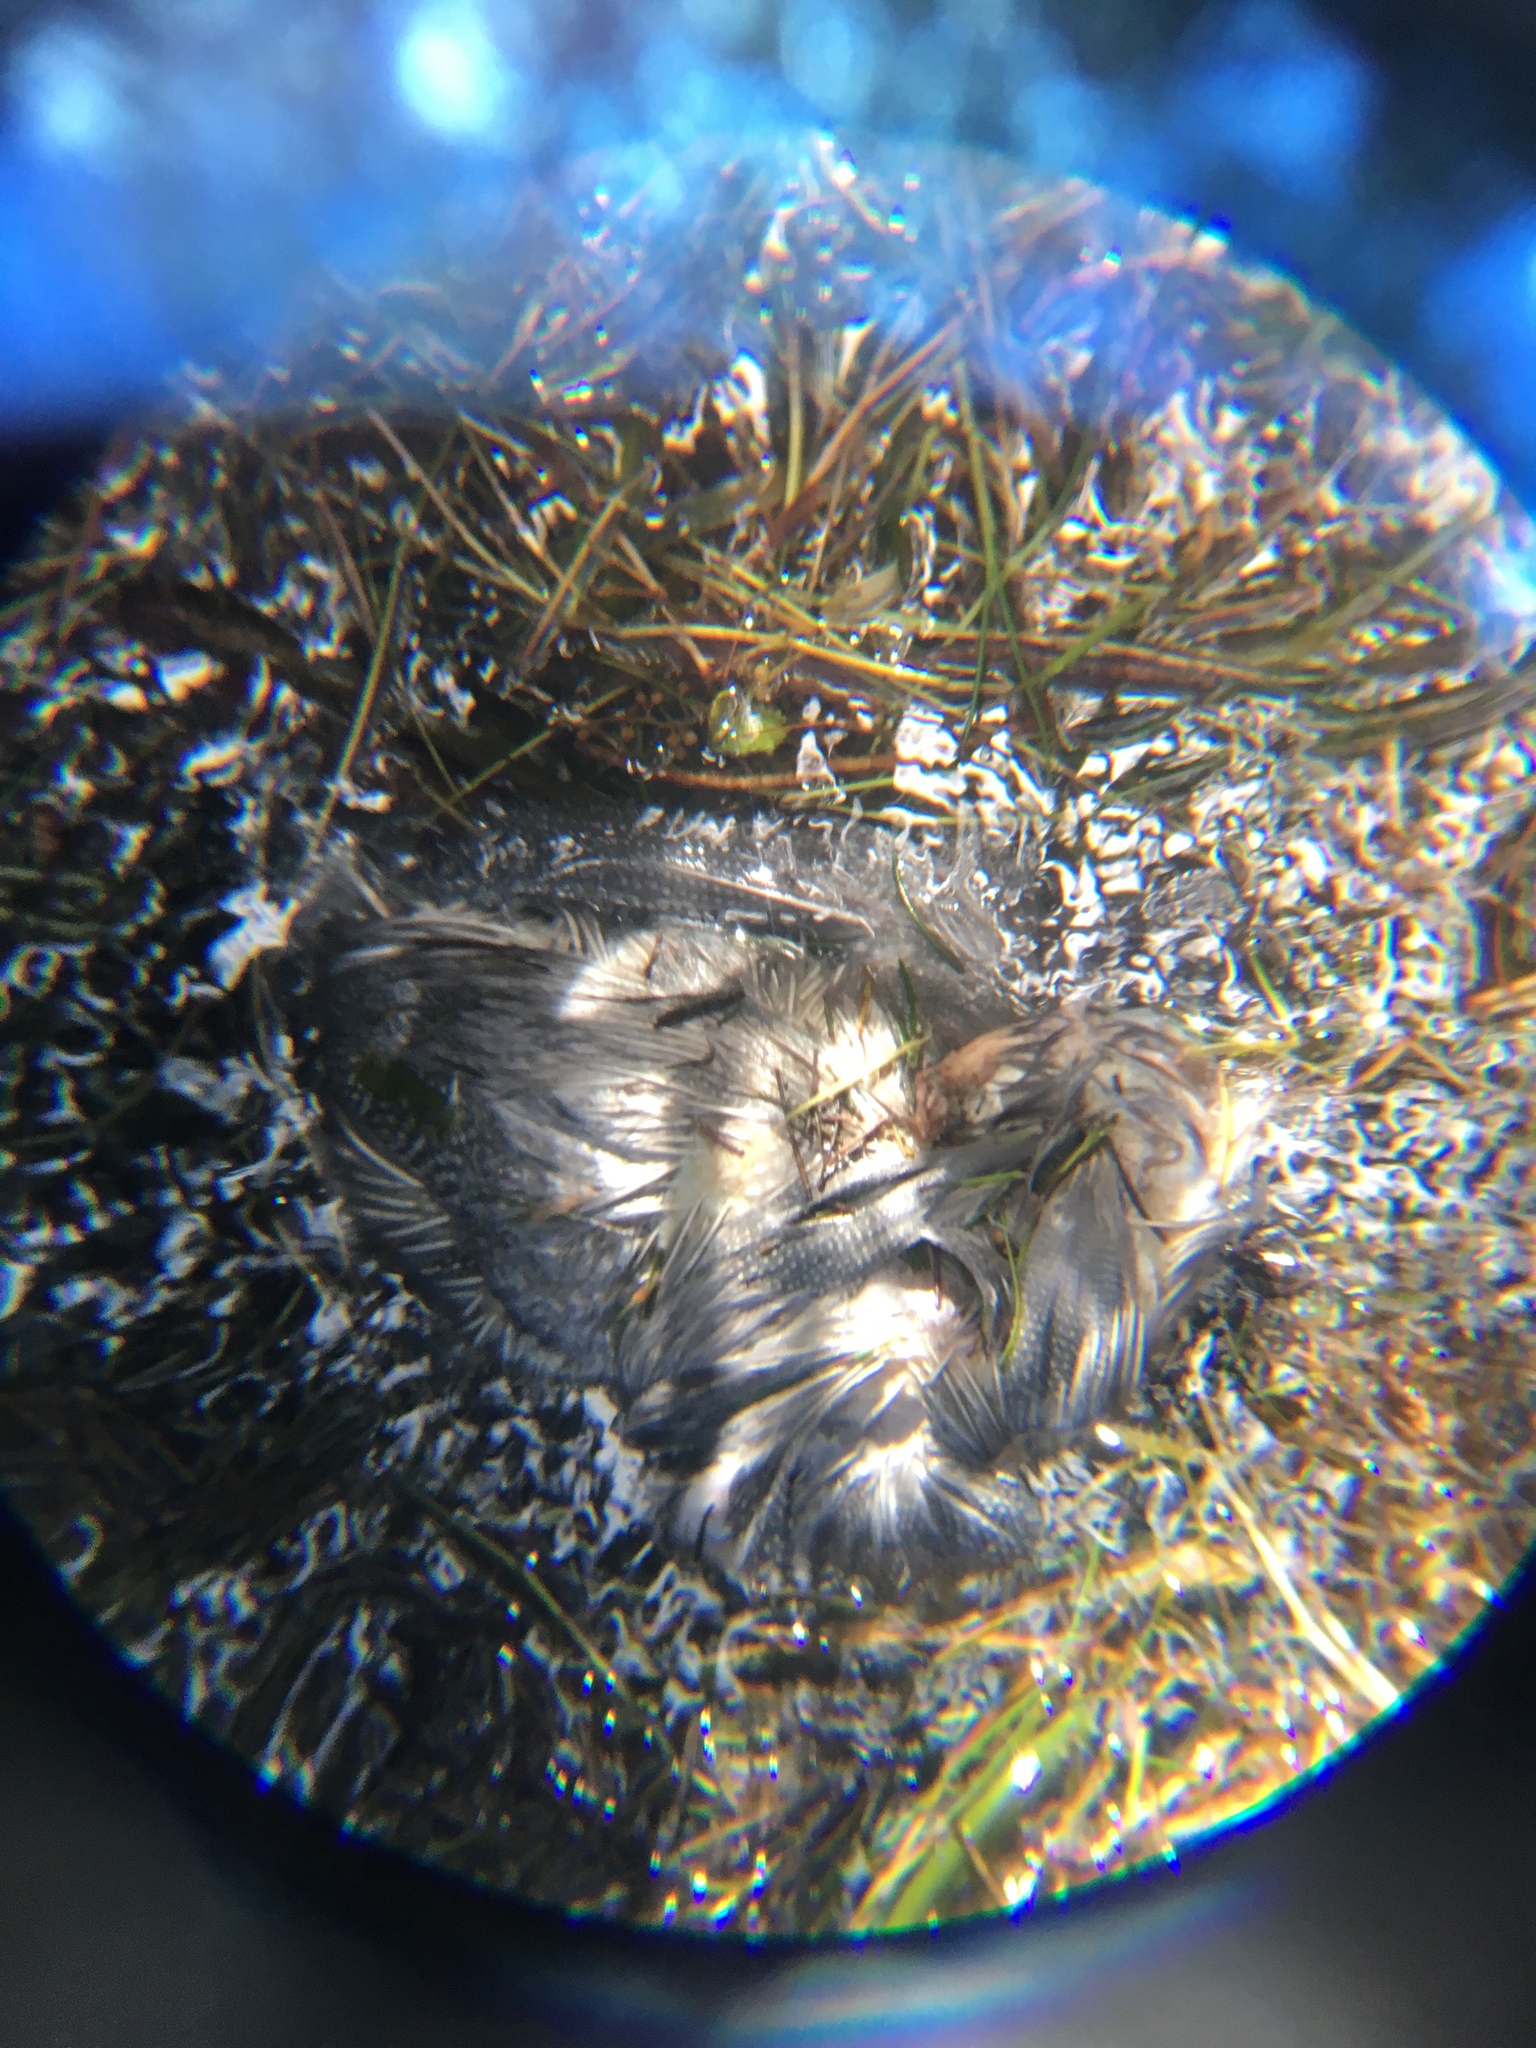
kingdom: Animalia
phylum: Chordata
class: Aves
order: Galliformes
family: Numididae
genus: Numida
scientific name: Numida meleagris
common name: Helmeted guineafowl
